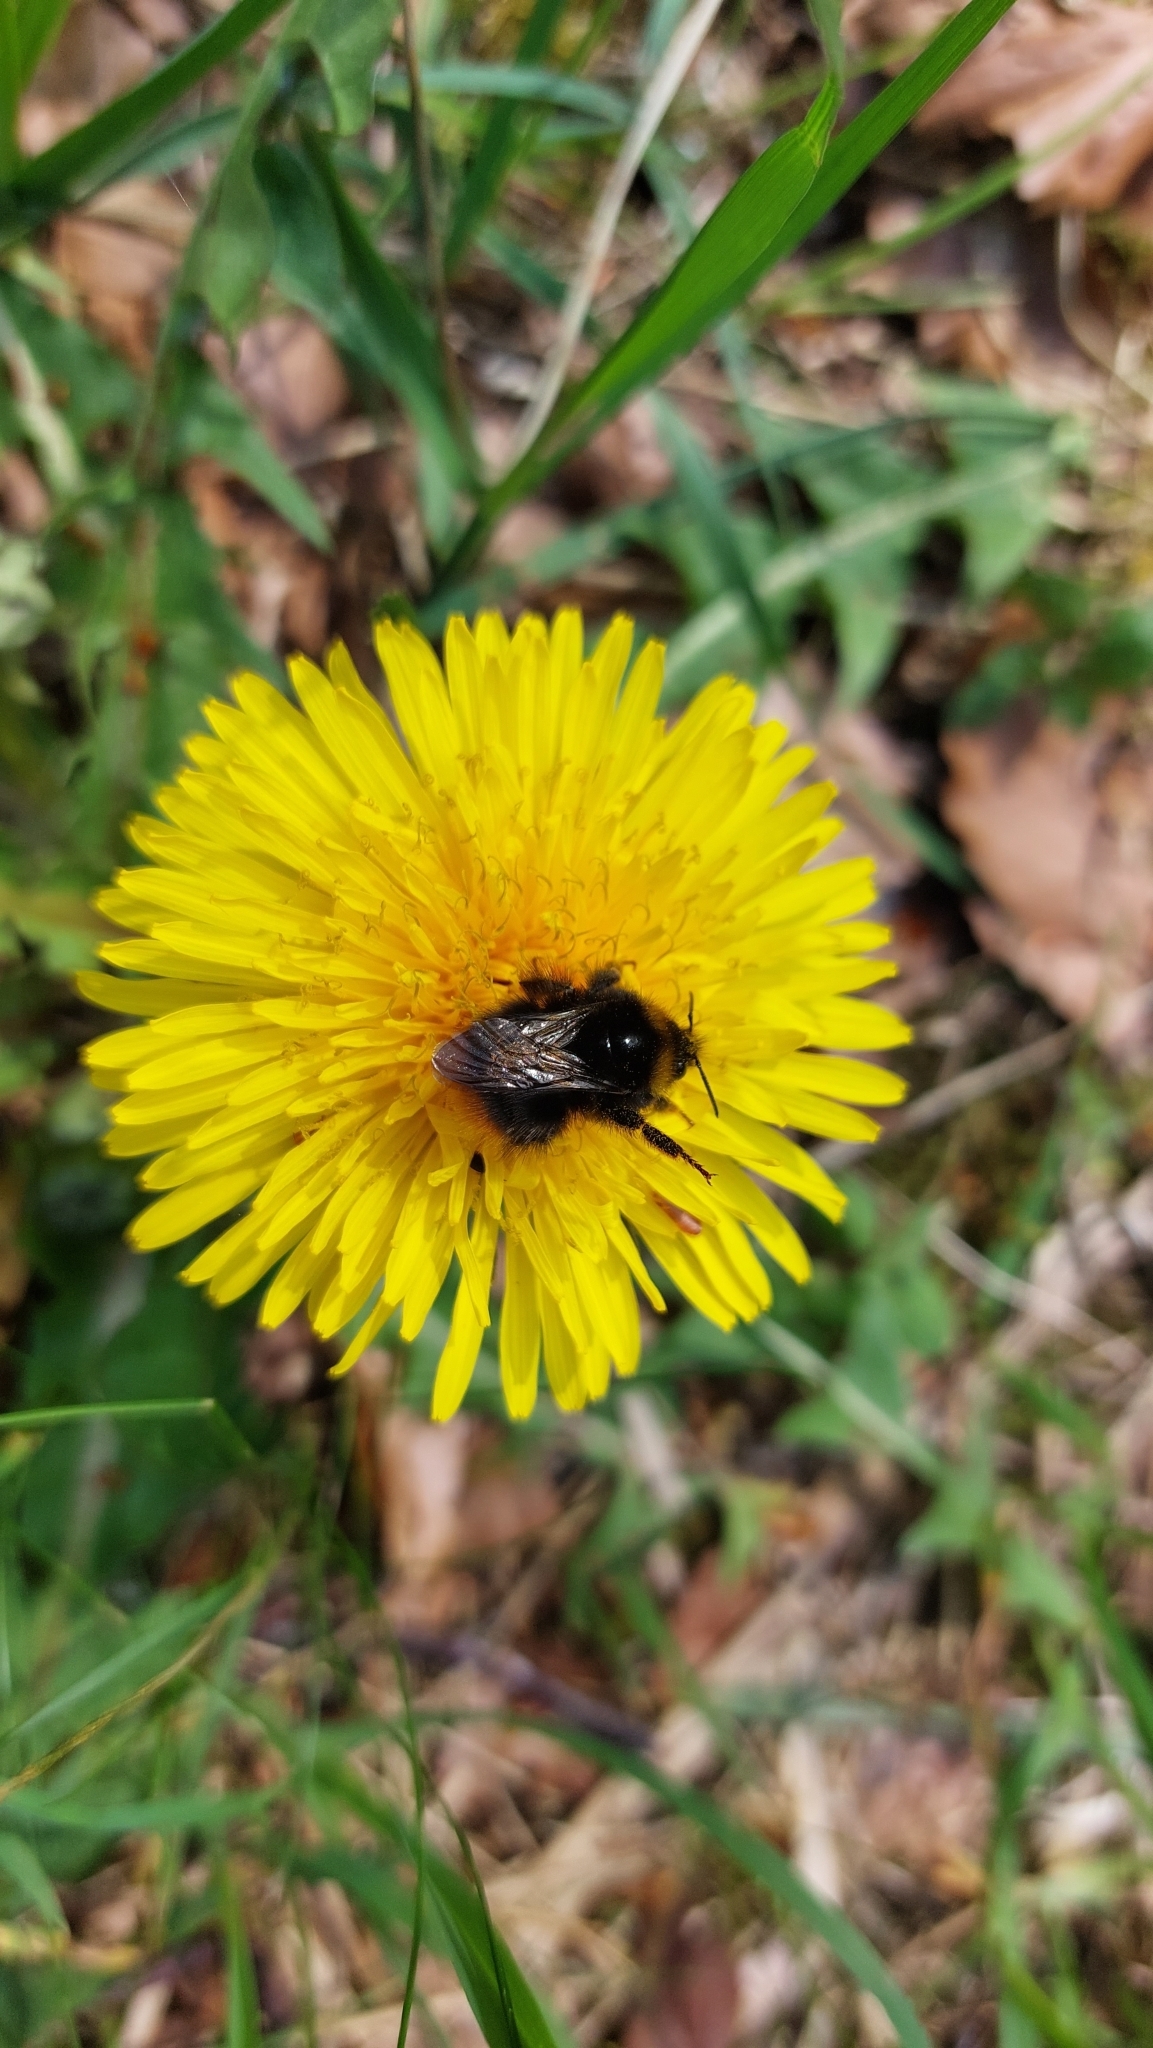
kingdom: Animalia
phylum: Arthropoda
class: Insecta
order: Hymenoptera
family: Apidae
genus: Bombus
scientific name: Bombus pratorum
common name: Early humble-bee
